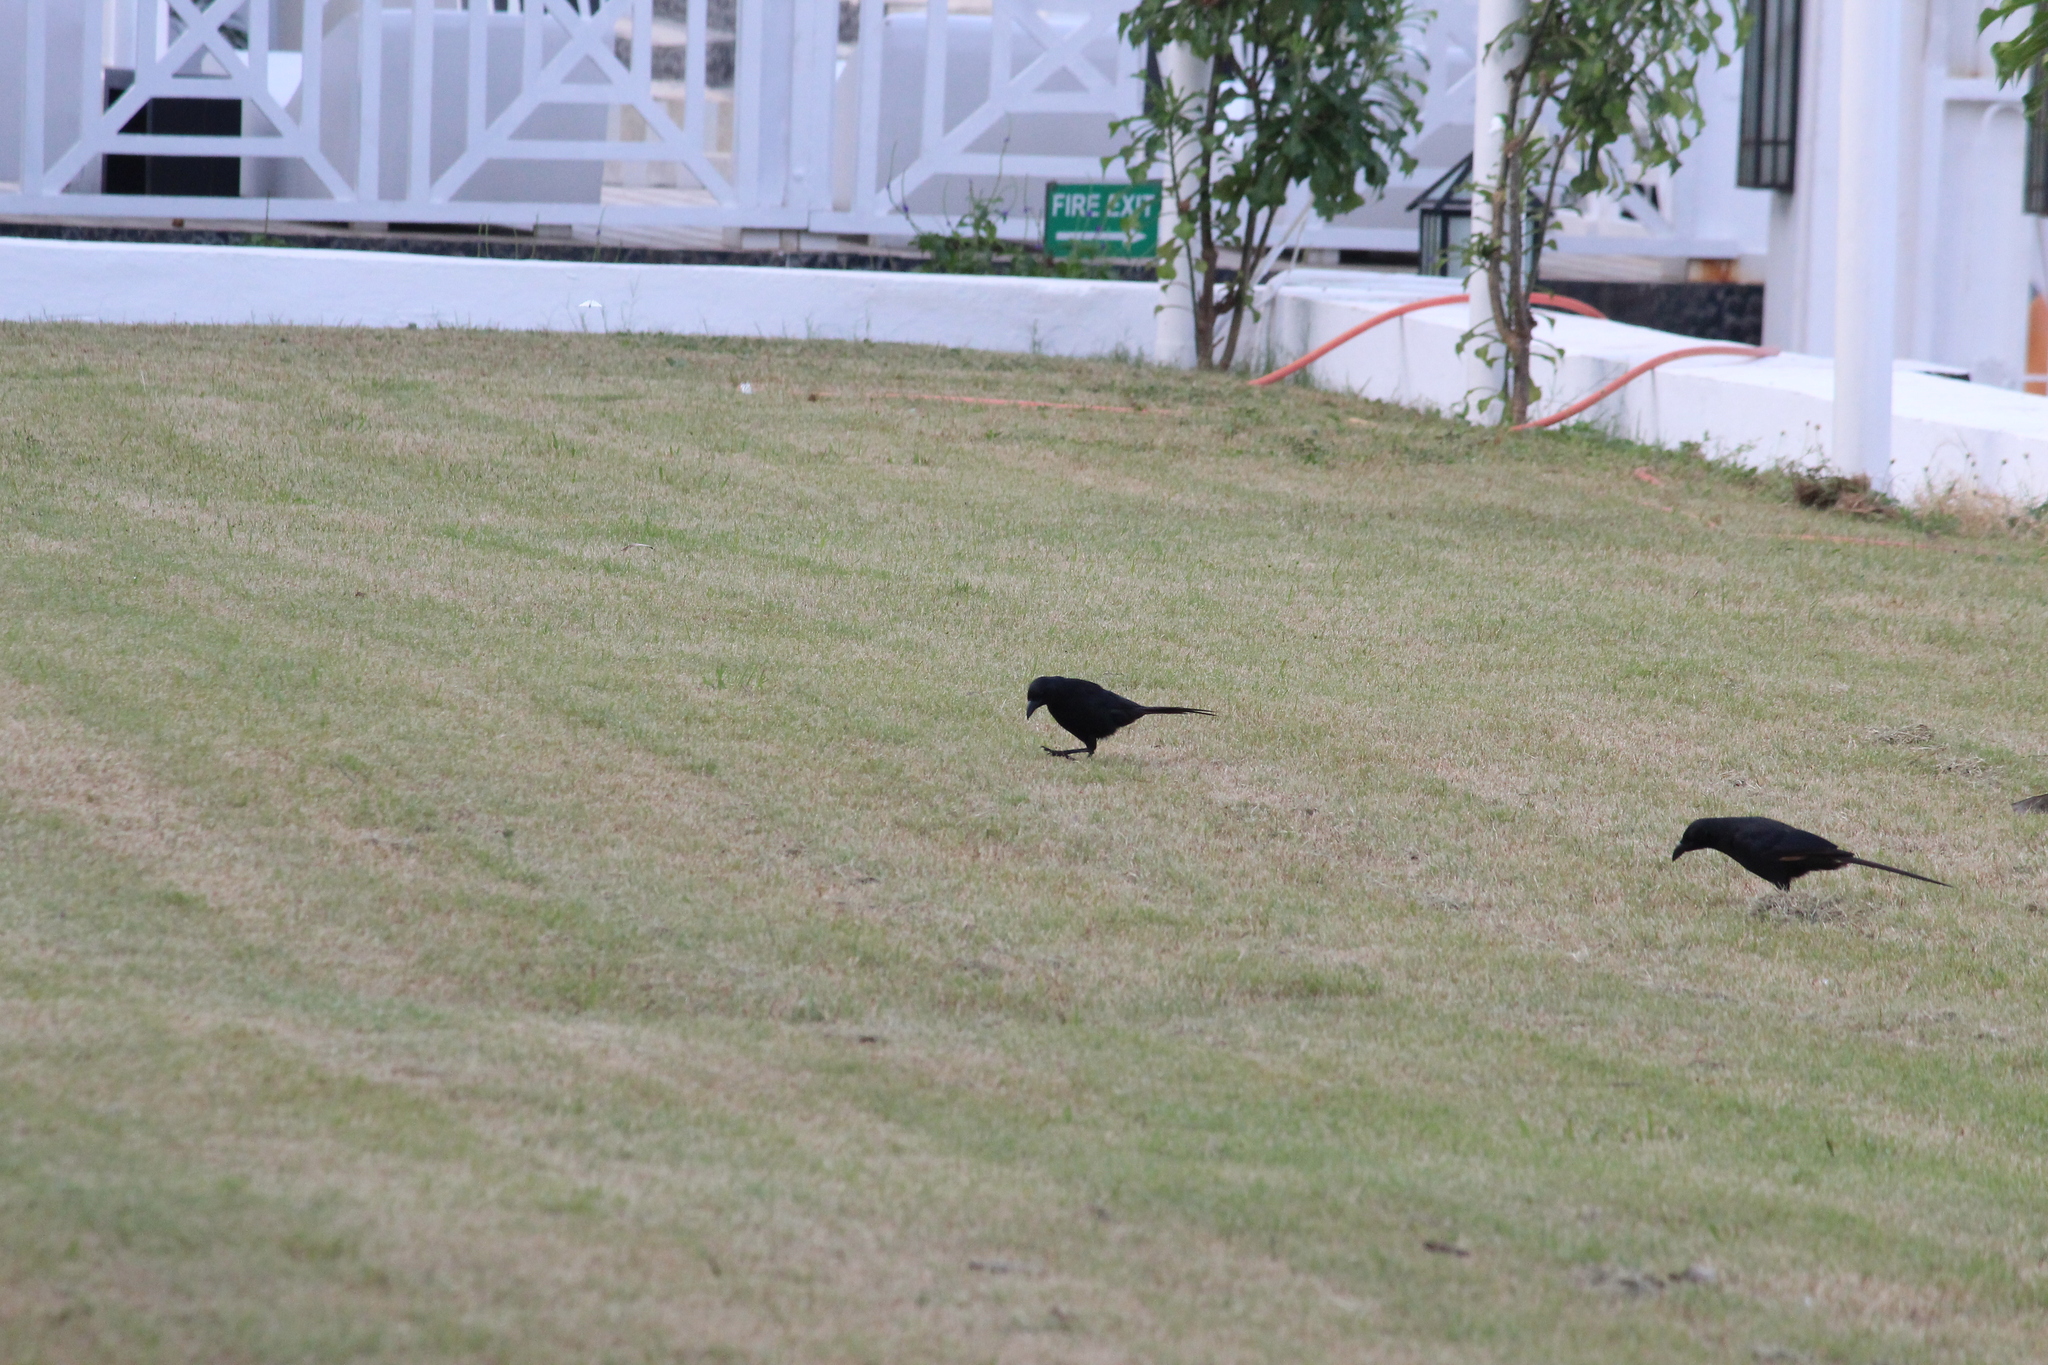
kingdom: Animalia
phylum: Chordata
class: Aves
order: Passeriformes
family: Corvidae
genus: Ptilostomus
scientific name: Ptilostomus afer
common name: Piapiac
